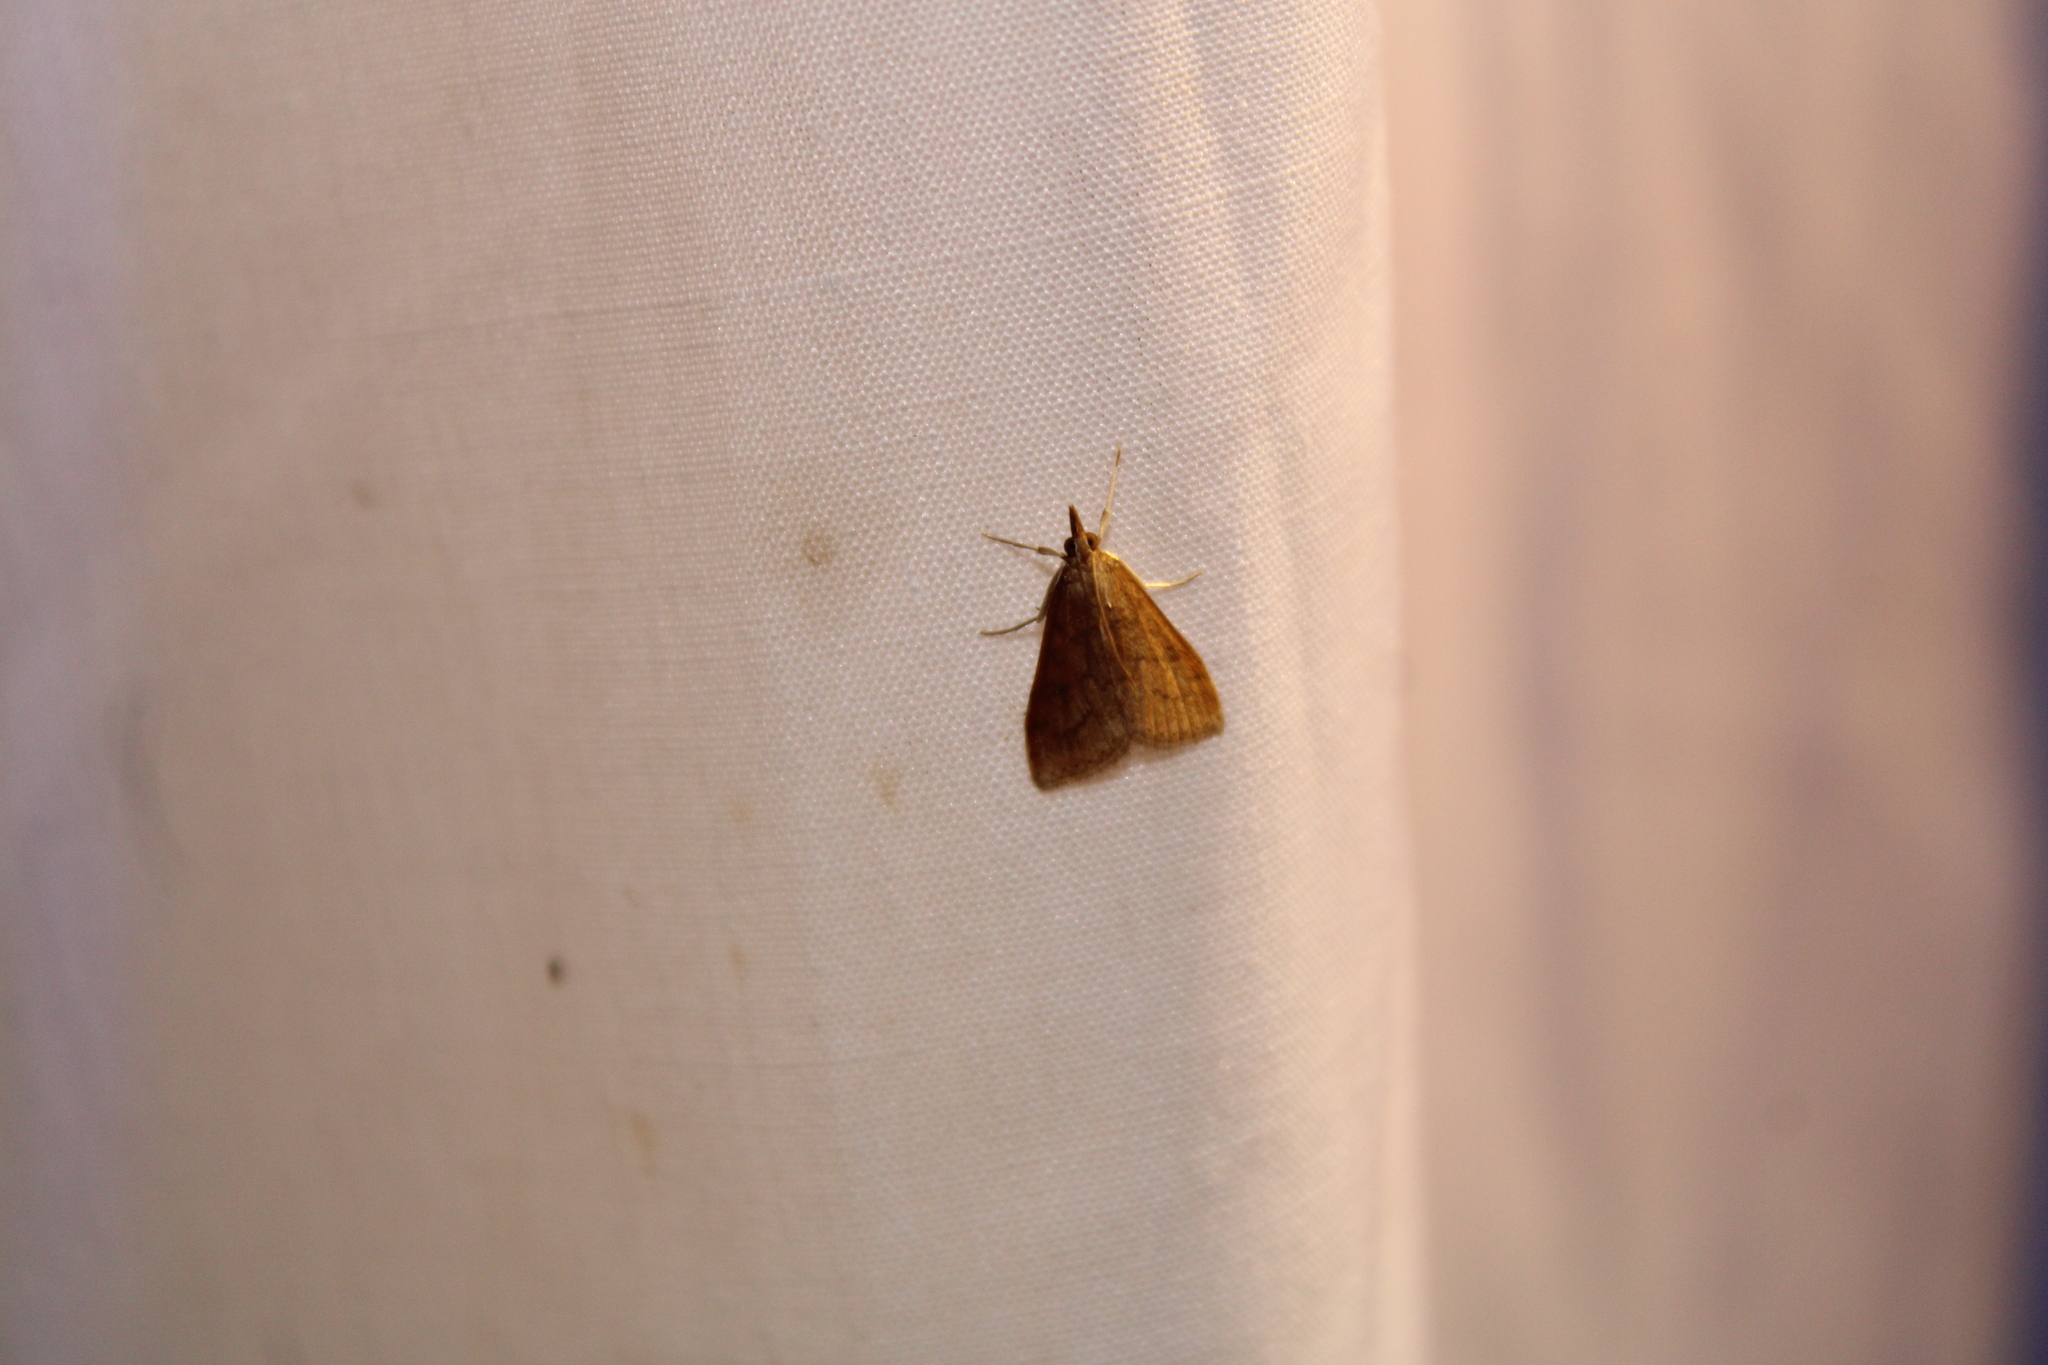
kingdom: Animalia
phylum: Arthropoda
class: Insecta
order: Lepidoptera
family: Crambidae
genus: Udea
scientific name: Udea rubigalis
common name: Celery leaftier moth
